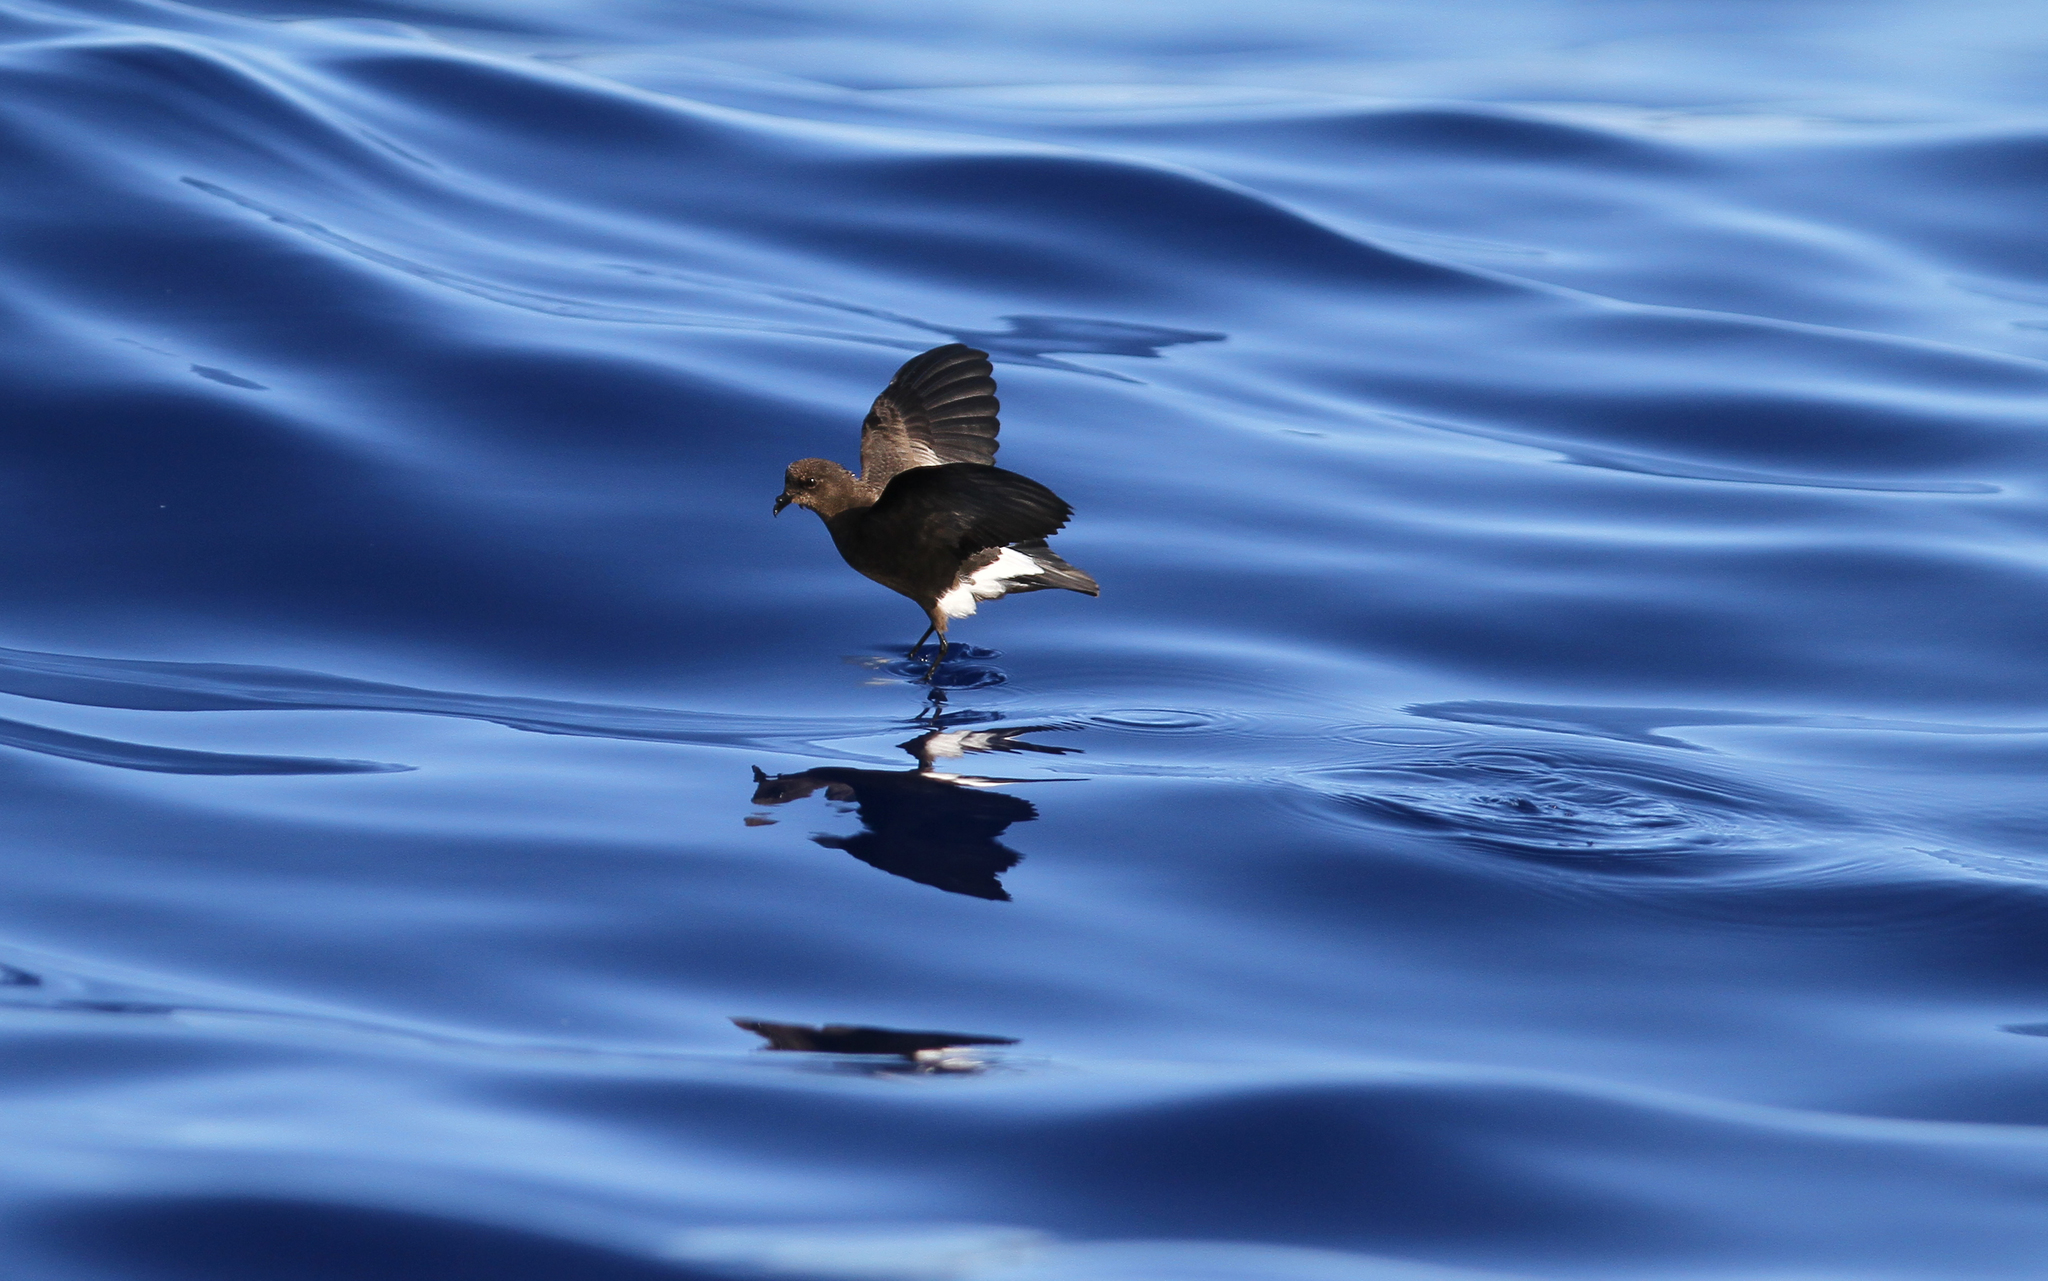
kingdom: Animalia
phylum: Chordata
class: Aves
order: Procellariiformes
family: Hydrobatidae
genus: Oceanites
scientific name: Oceanites oceanicus
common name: Wilson's storm petrel
